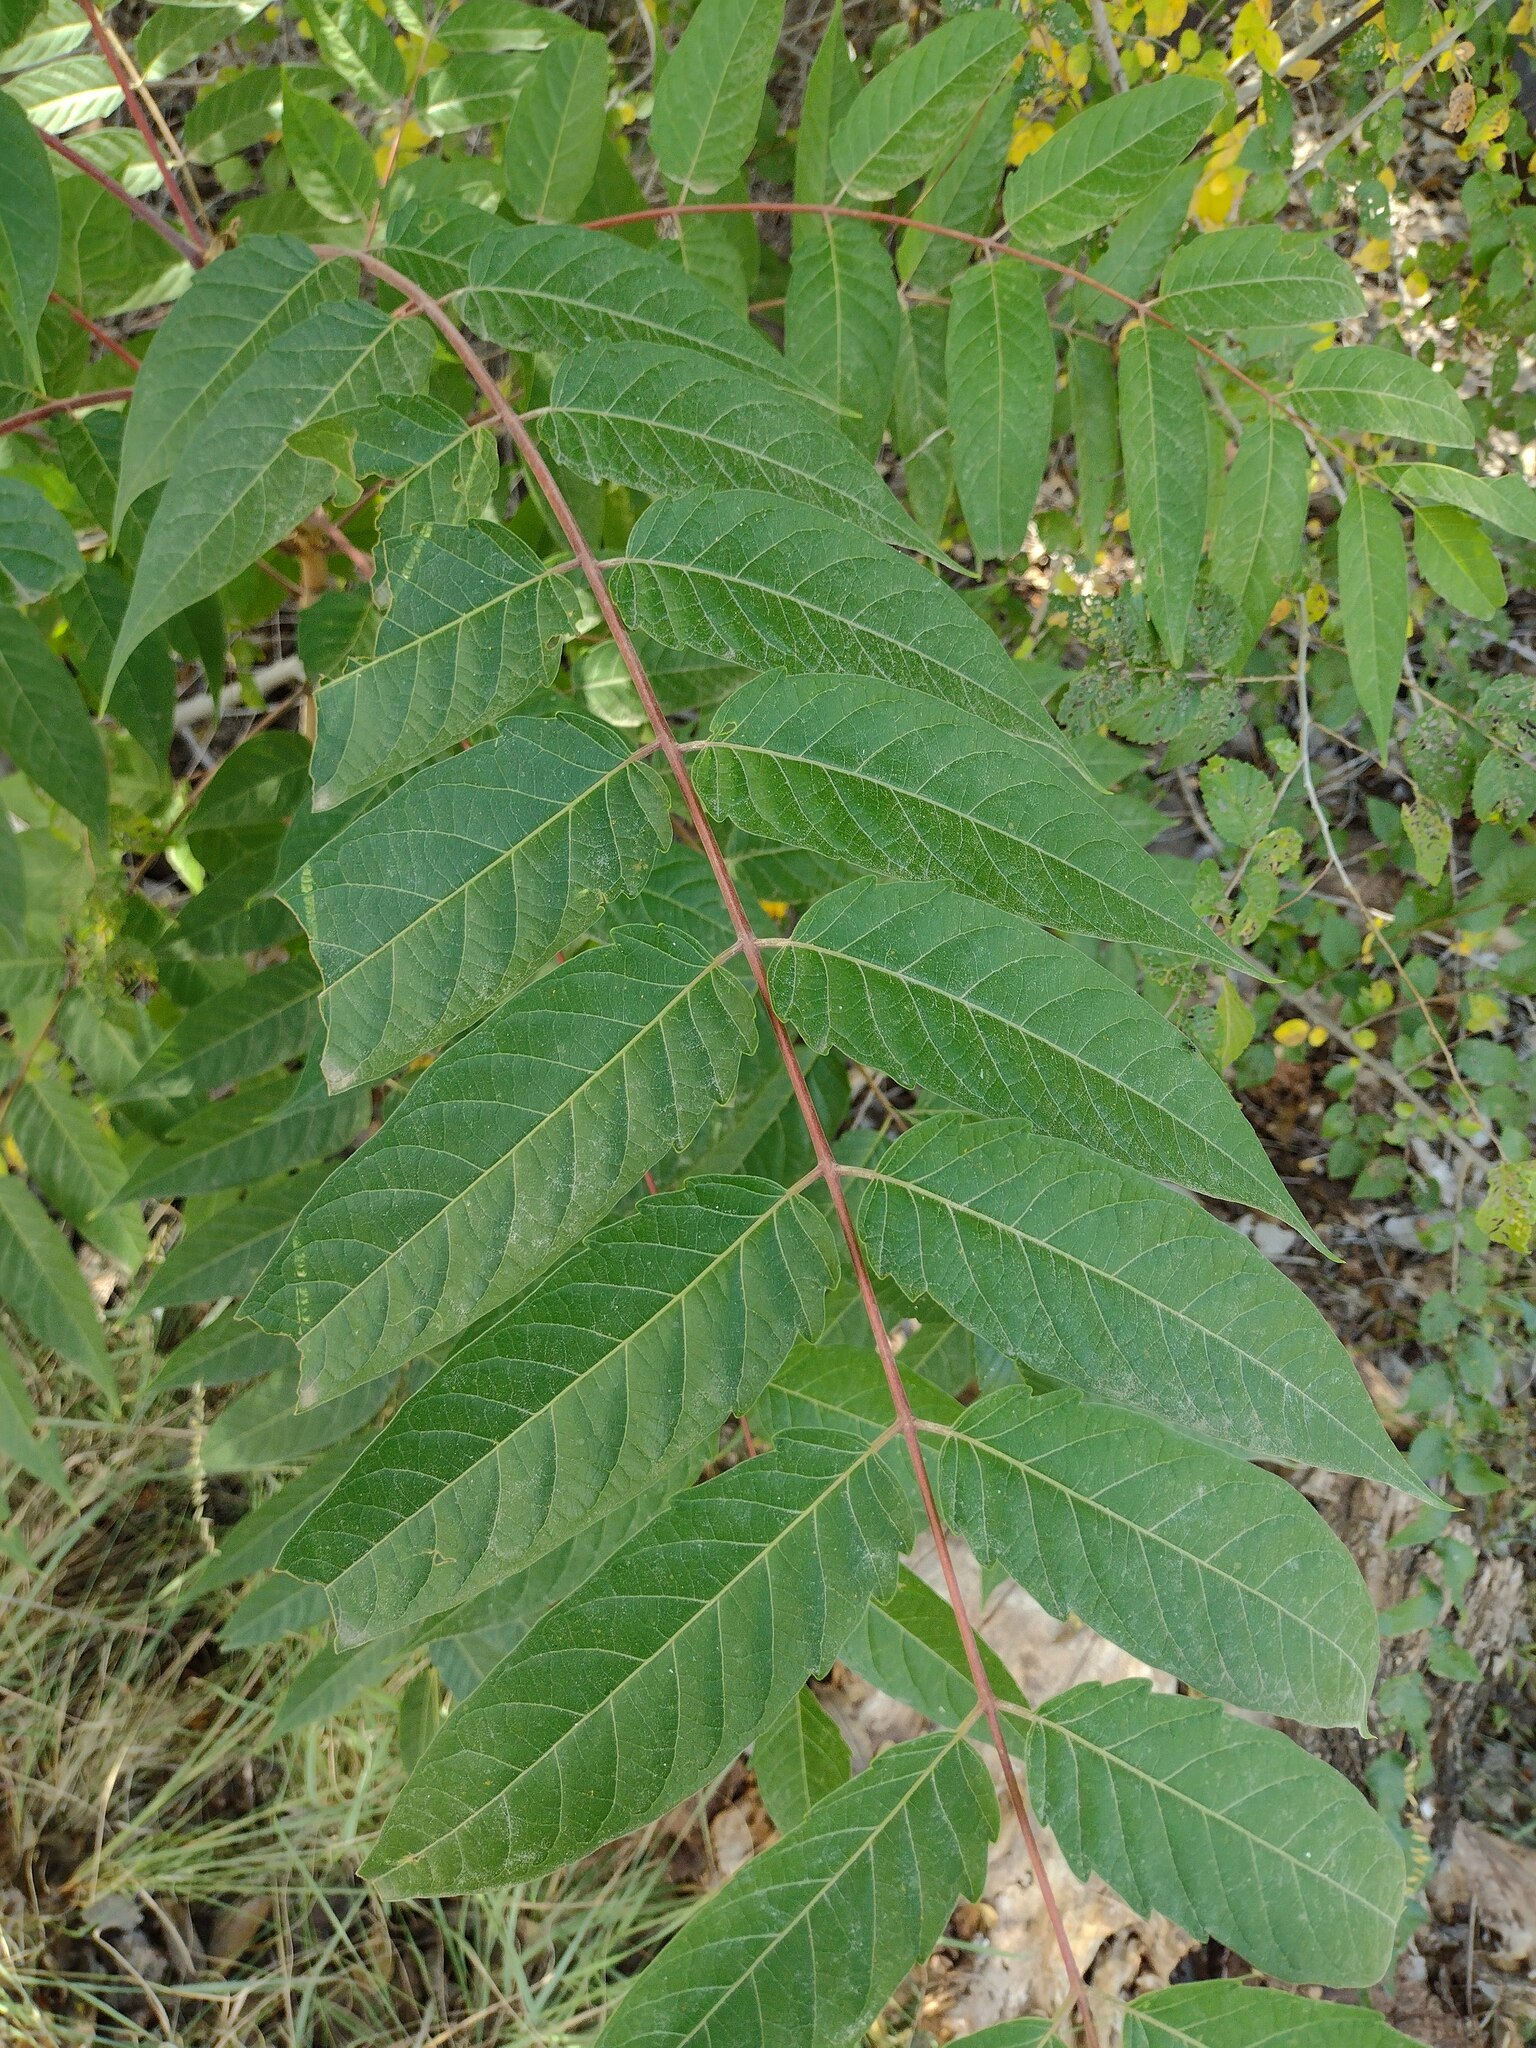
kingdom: Plantae
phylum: Tracheophyta
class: Magnoliopsida
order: Sapindales
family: Simaroubaceae
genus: Ailanthus
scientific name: Ailanthus altissima
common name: Tree-of-heaven
